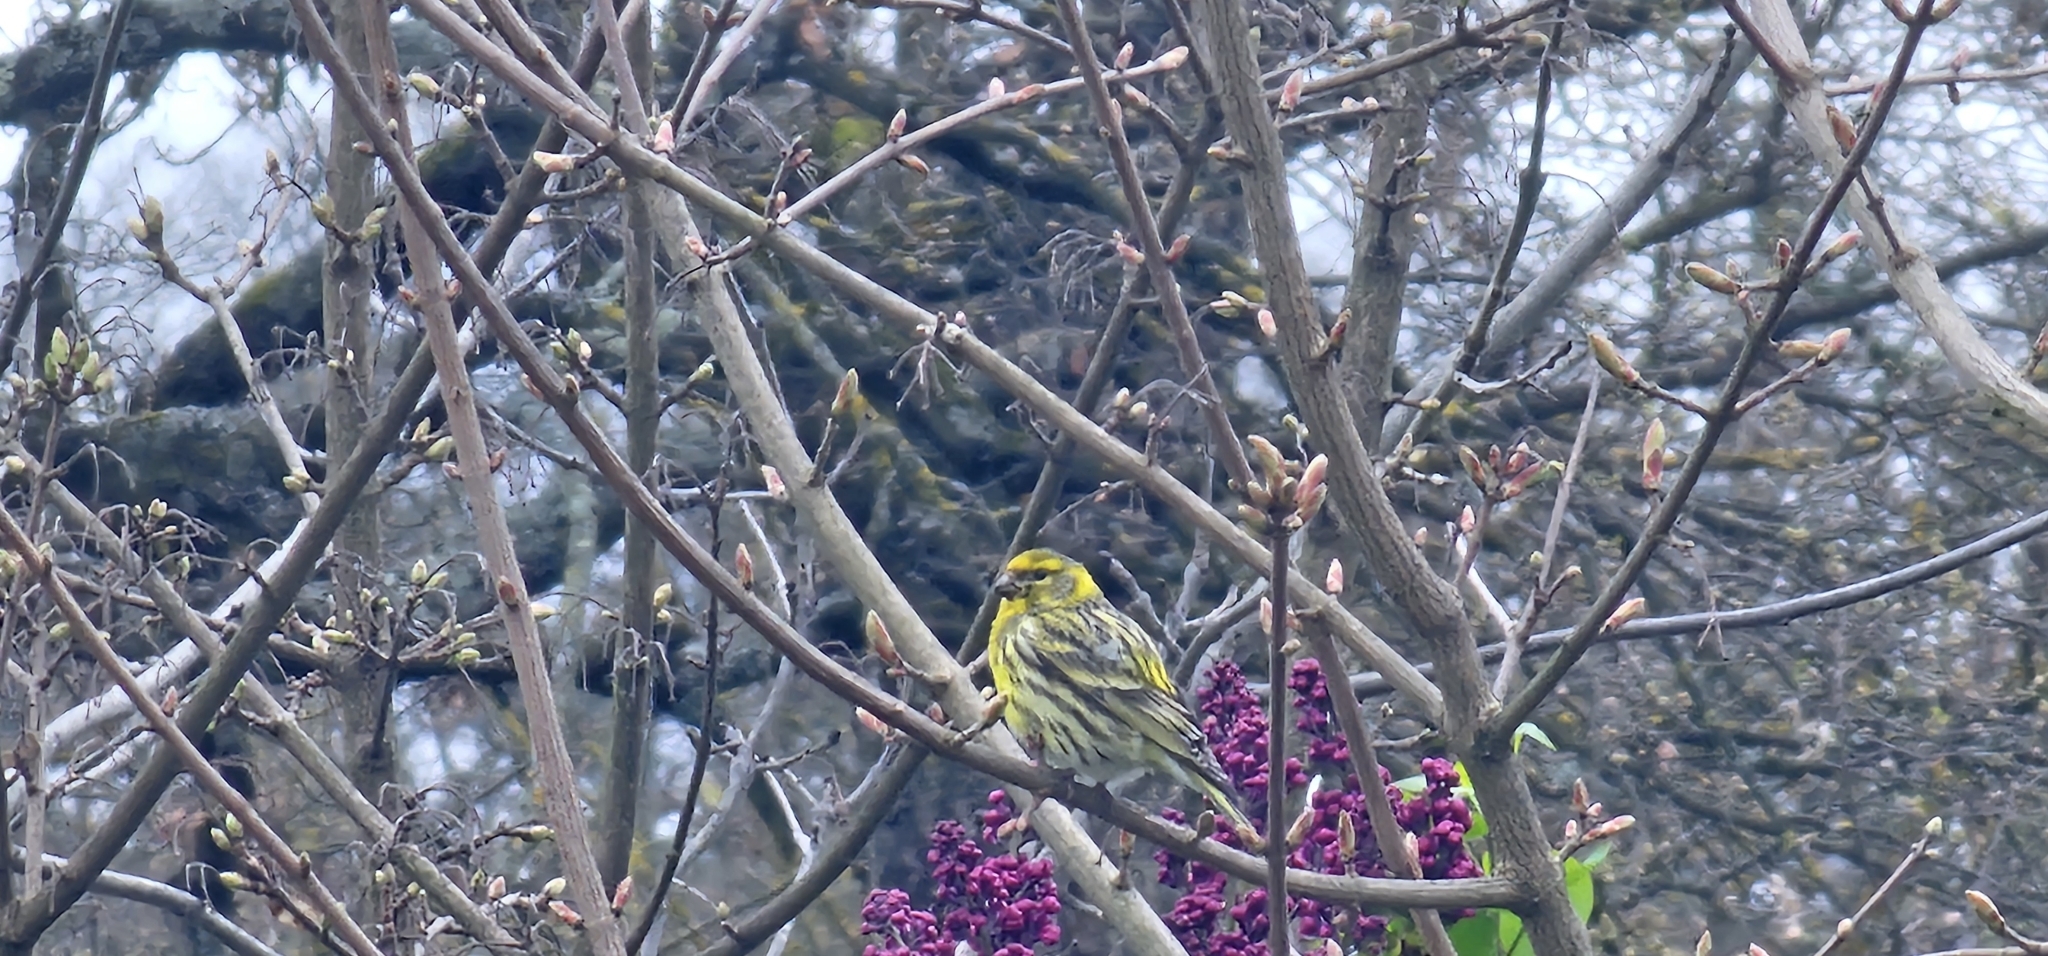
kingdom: Animalia
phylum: Chordata
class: Aves
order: Passeriformes
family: Fringillidae
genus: Serinus
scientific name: Serinus serinus
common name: European serin
